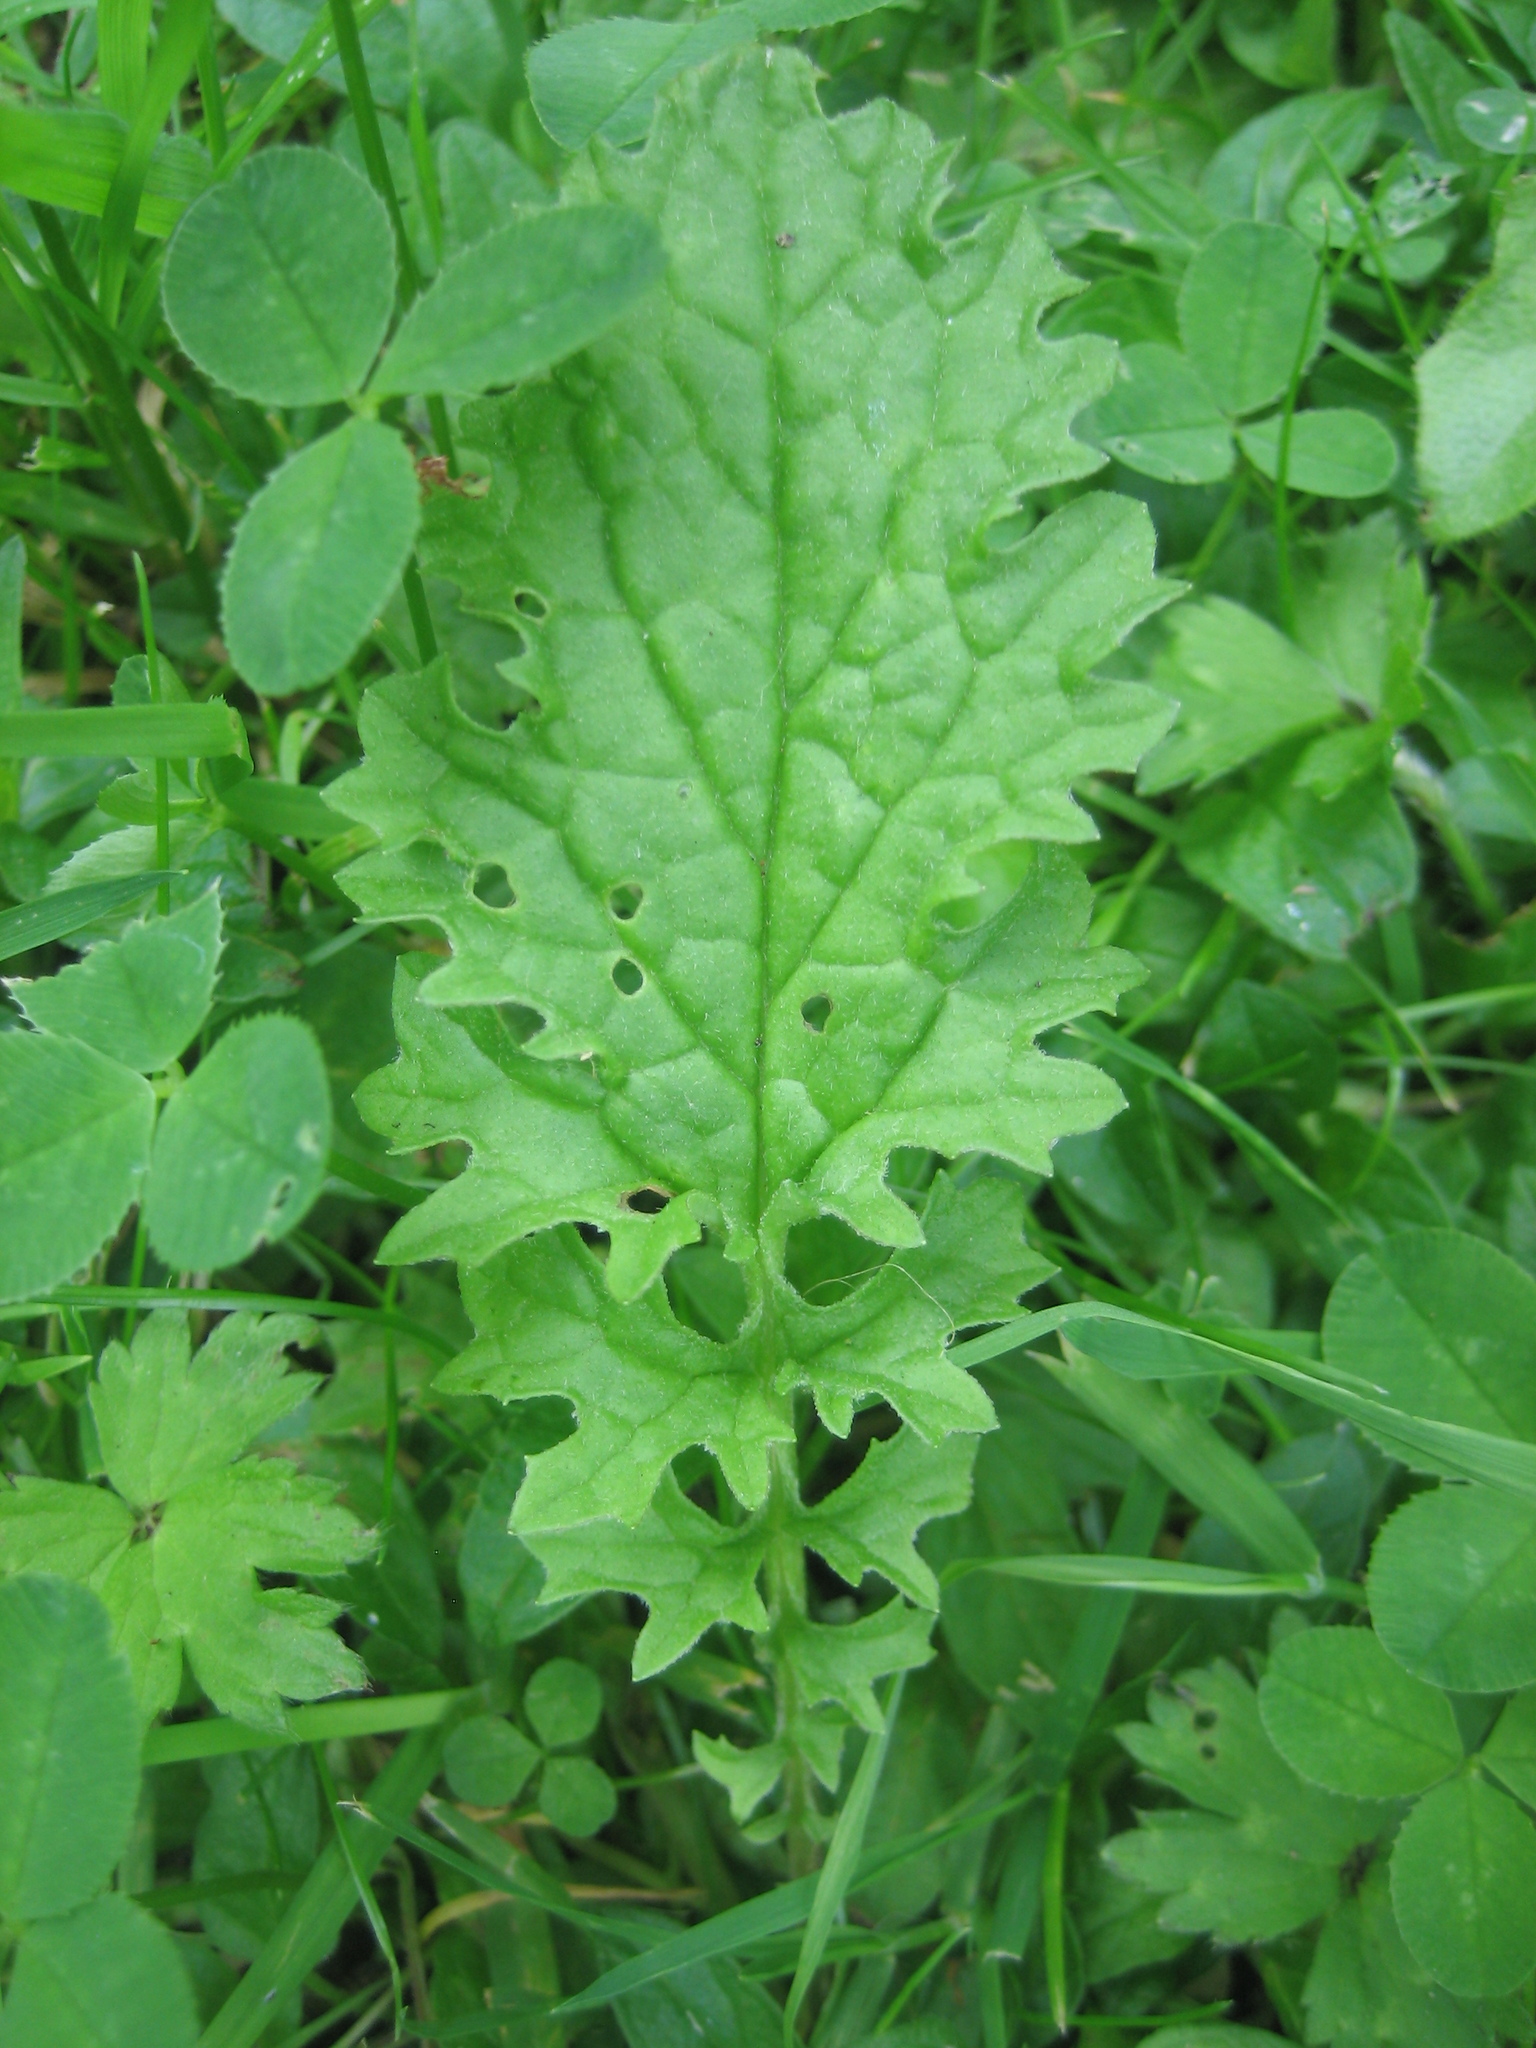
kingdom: Plantae
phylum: Tracheophyta
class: Magnoliopsida
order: Asterales
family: Asteraceae
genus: Jacobaea
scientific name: Jacobaea vulgaris
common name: Stinking willie
